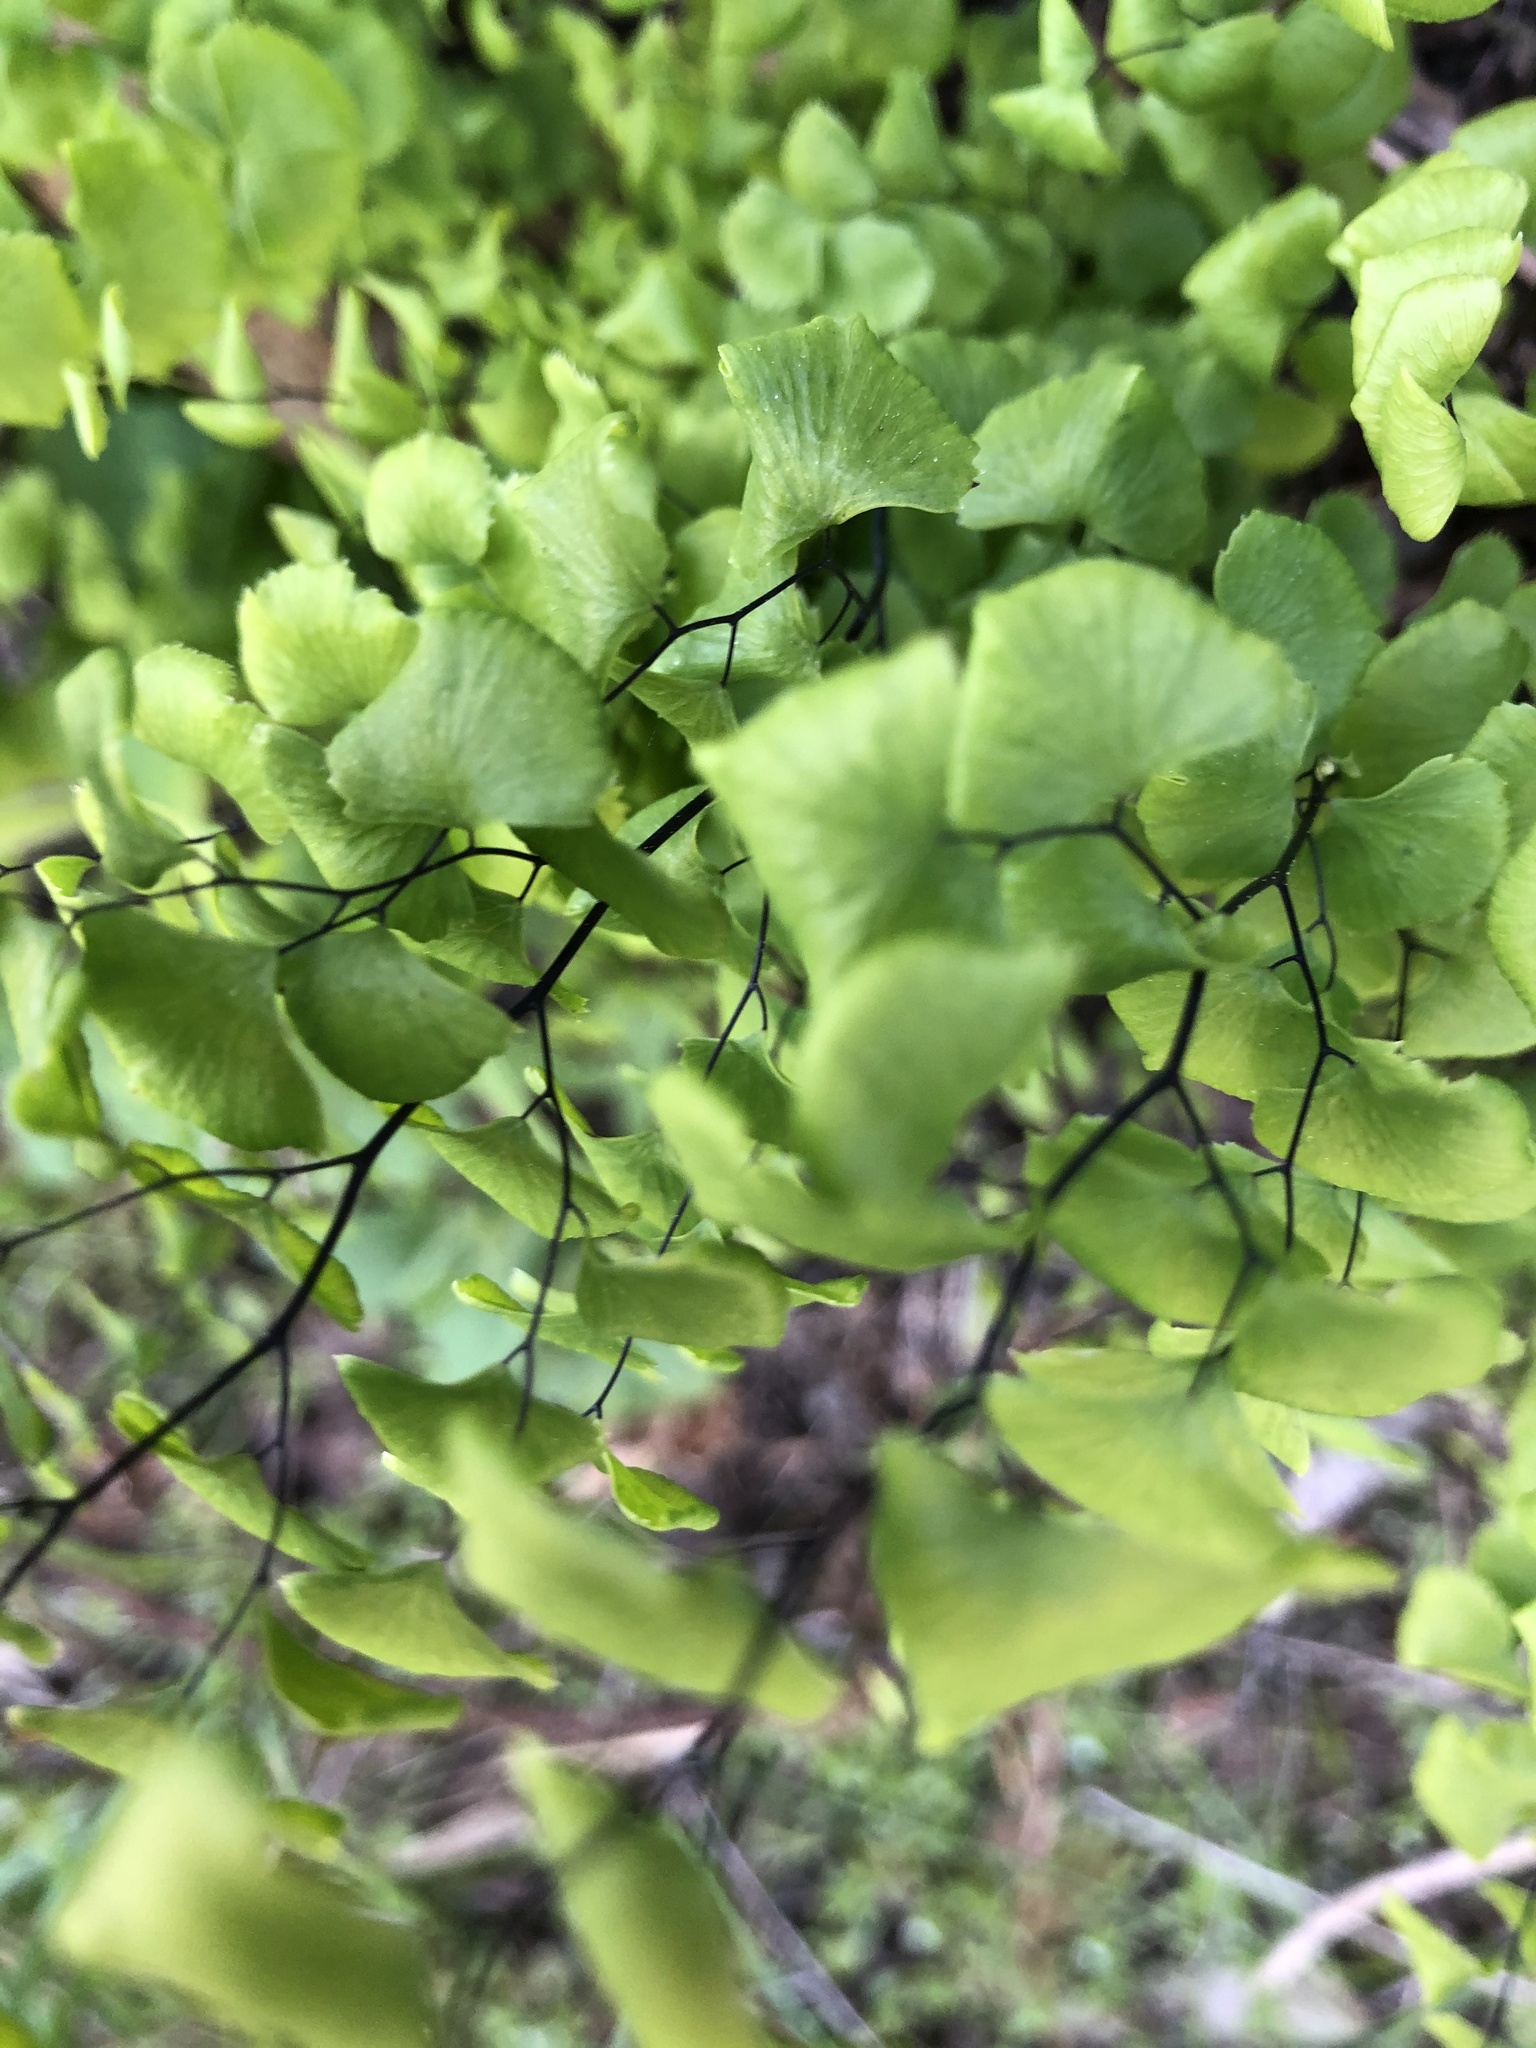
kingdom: Plantae
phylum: Tracheophyta
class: Polypodiopsida
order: Polypodiales
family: Pteridaceae
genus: Adiantum
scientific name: Adiantum jordanii
